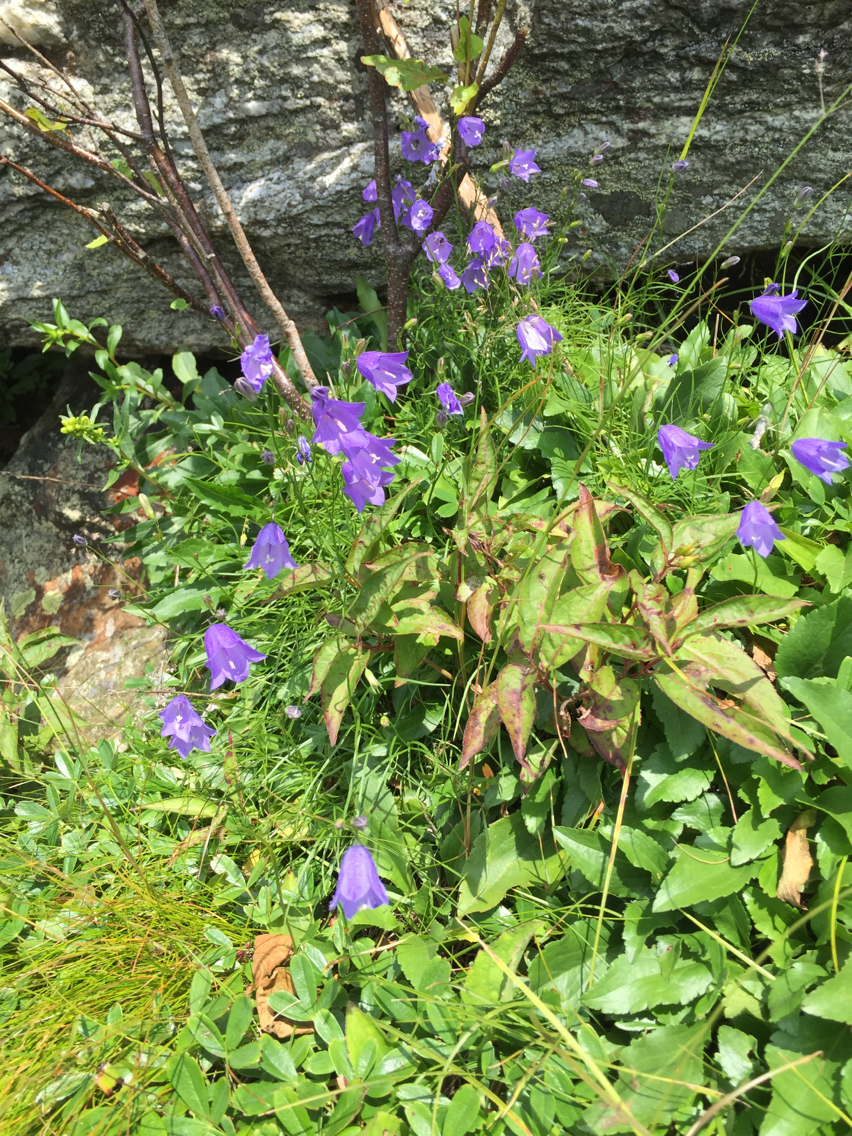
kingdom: Plantae
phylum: Tracheophyta
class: Magnoliopsida
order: Asterales
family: Campanulaceae
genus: Campanula
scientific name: Campanula intercedens
